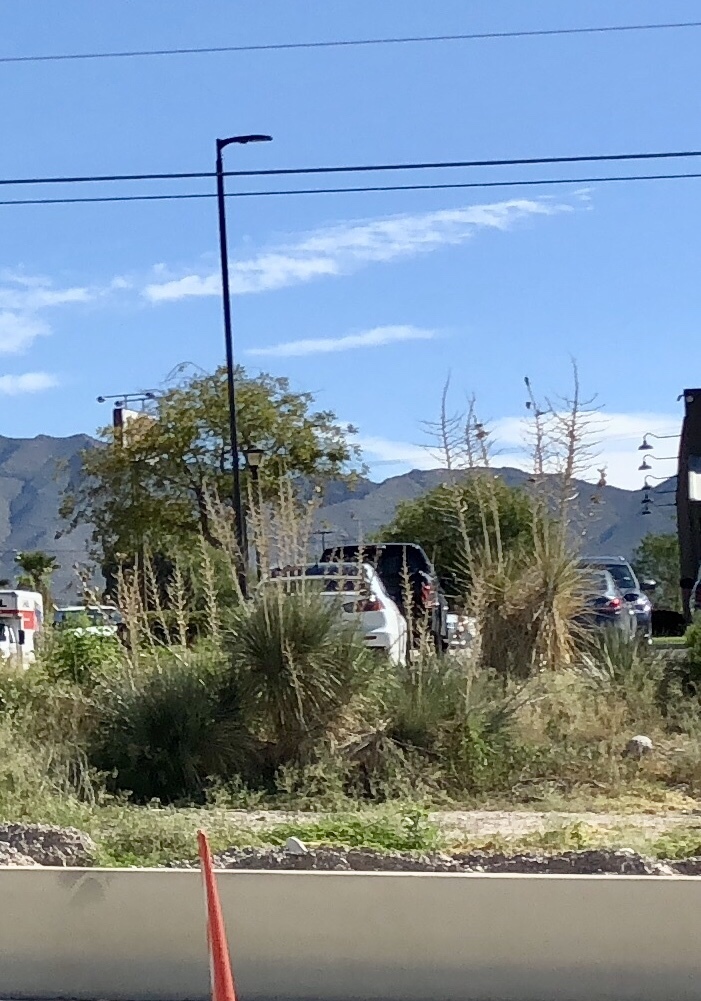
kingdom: Plantae
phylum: Tracheophyta
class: Liliopsida
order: Asparagales
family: Asparagaceae
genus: Yucca
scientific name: Yucca elata
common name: Palmella
